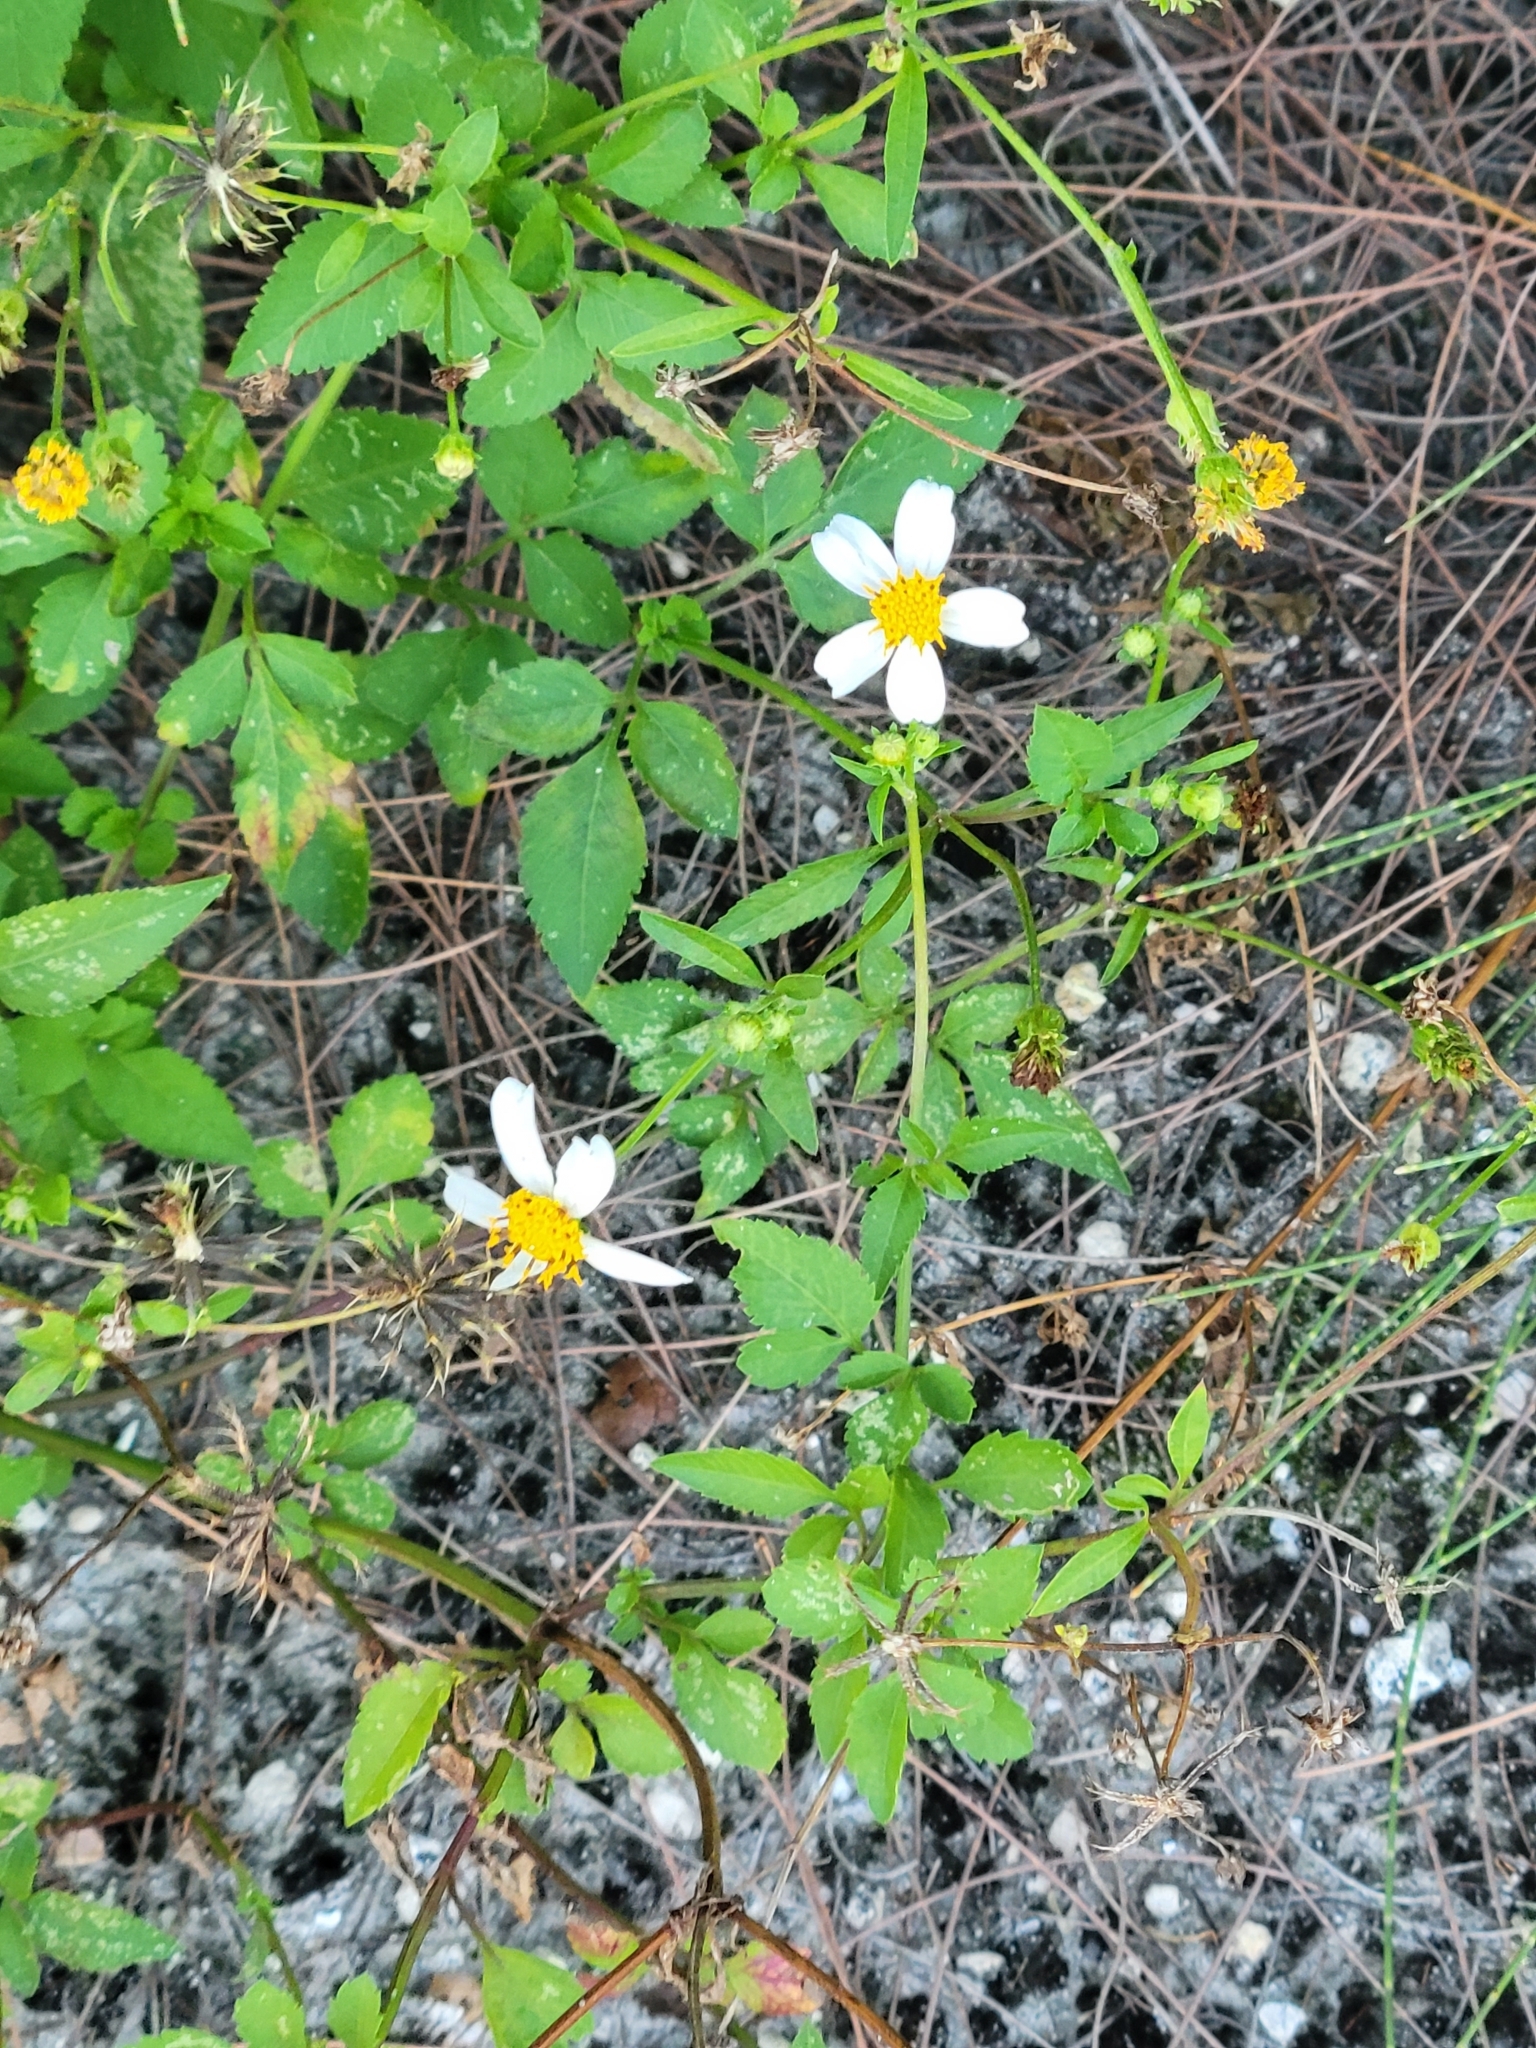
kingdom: Plantae
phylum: Tracheophyta
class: Magnoliopsida
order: Asterales
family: Asteraceae
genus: Bidens
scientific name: Bidens alba
